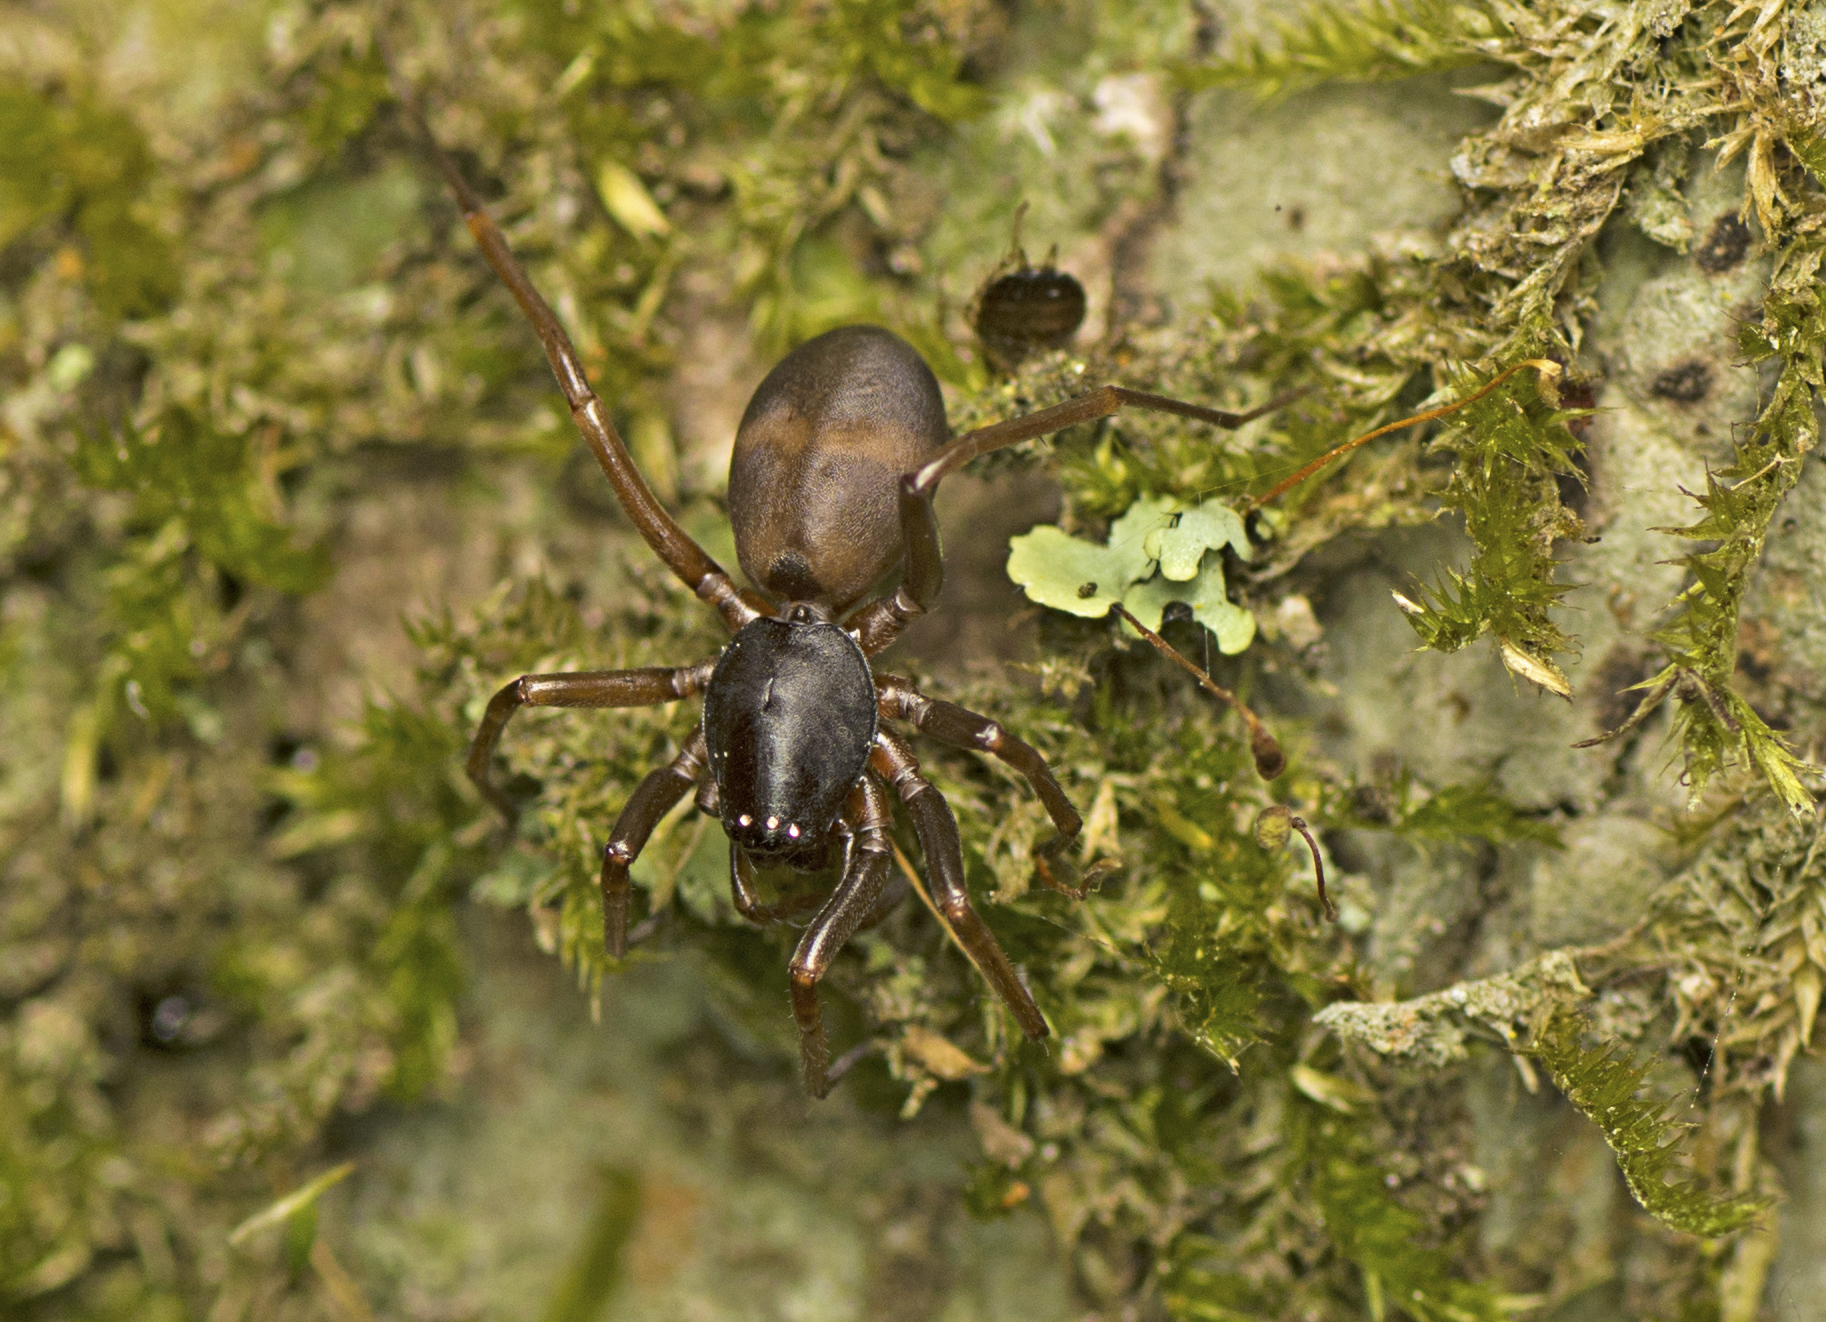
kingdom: Animalia
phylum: Arthropoda
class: Arachnida
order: Araneae
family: Lamponidae
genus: Centsymplia
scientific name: Centsymplia glorious
